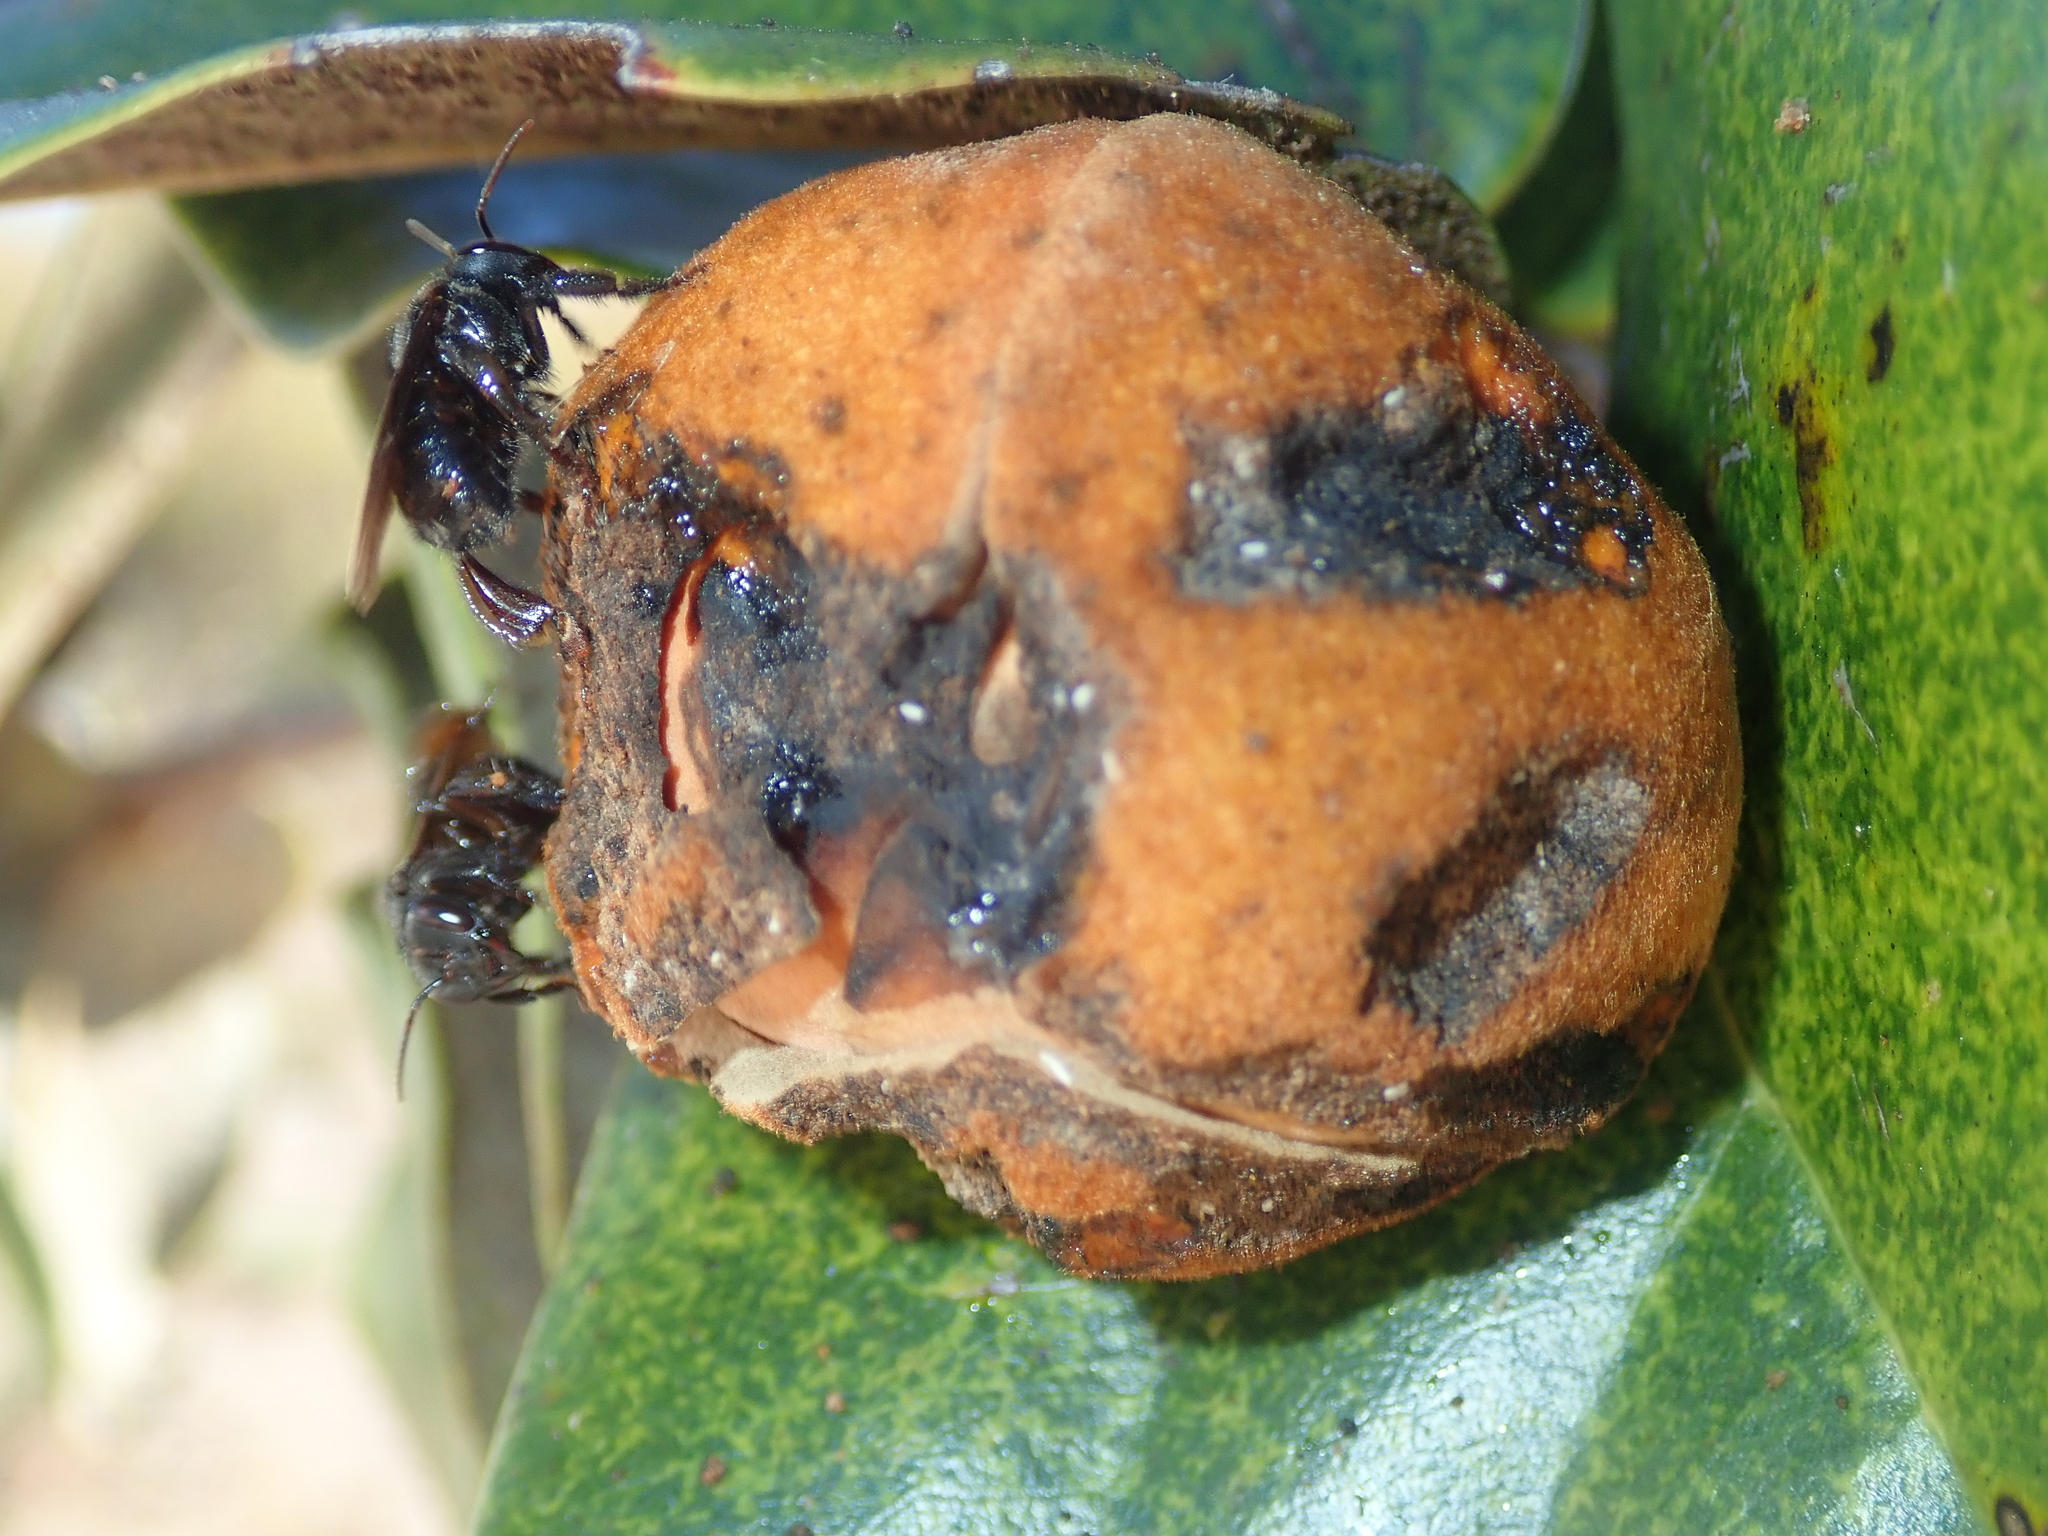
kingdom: Plantae
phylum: Tracheophyta
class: Magnoliopsida
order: Magnoliales
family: Annonaceae
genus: Annona
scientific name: Annona coriacea
